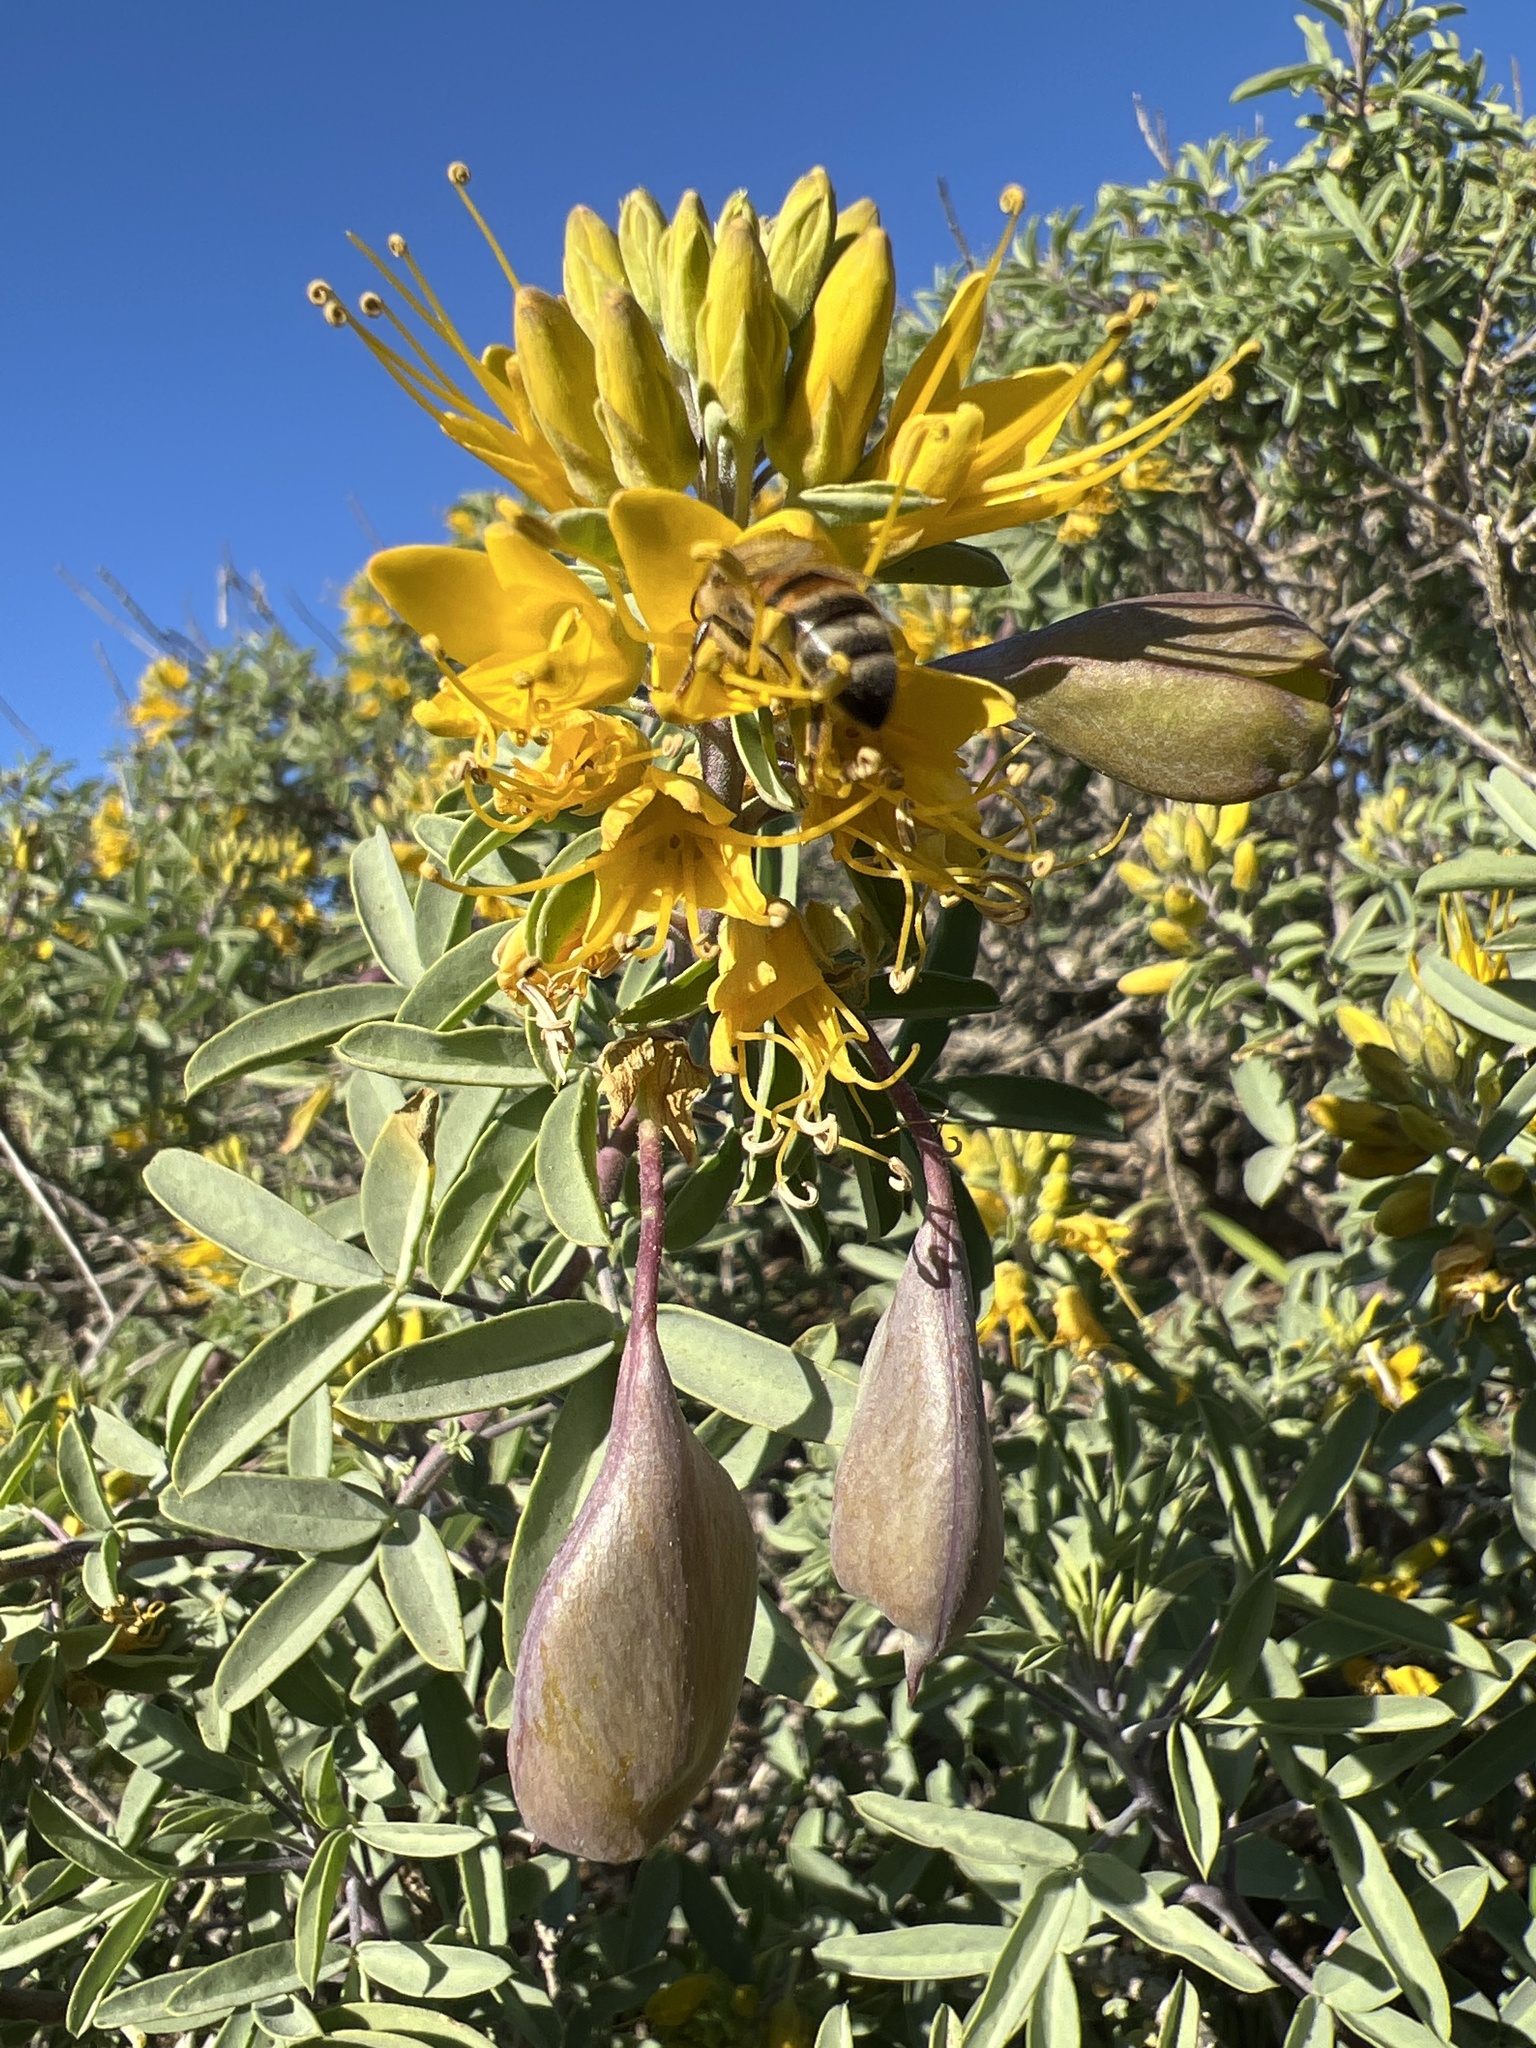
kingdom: Plantae
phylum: Tracheophyta
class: Magnoliopsida
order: Brassicales
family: Cleomaceae
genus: Cleomella
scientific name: Cleomella arborea
